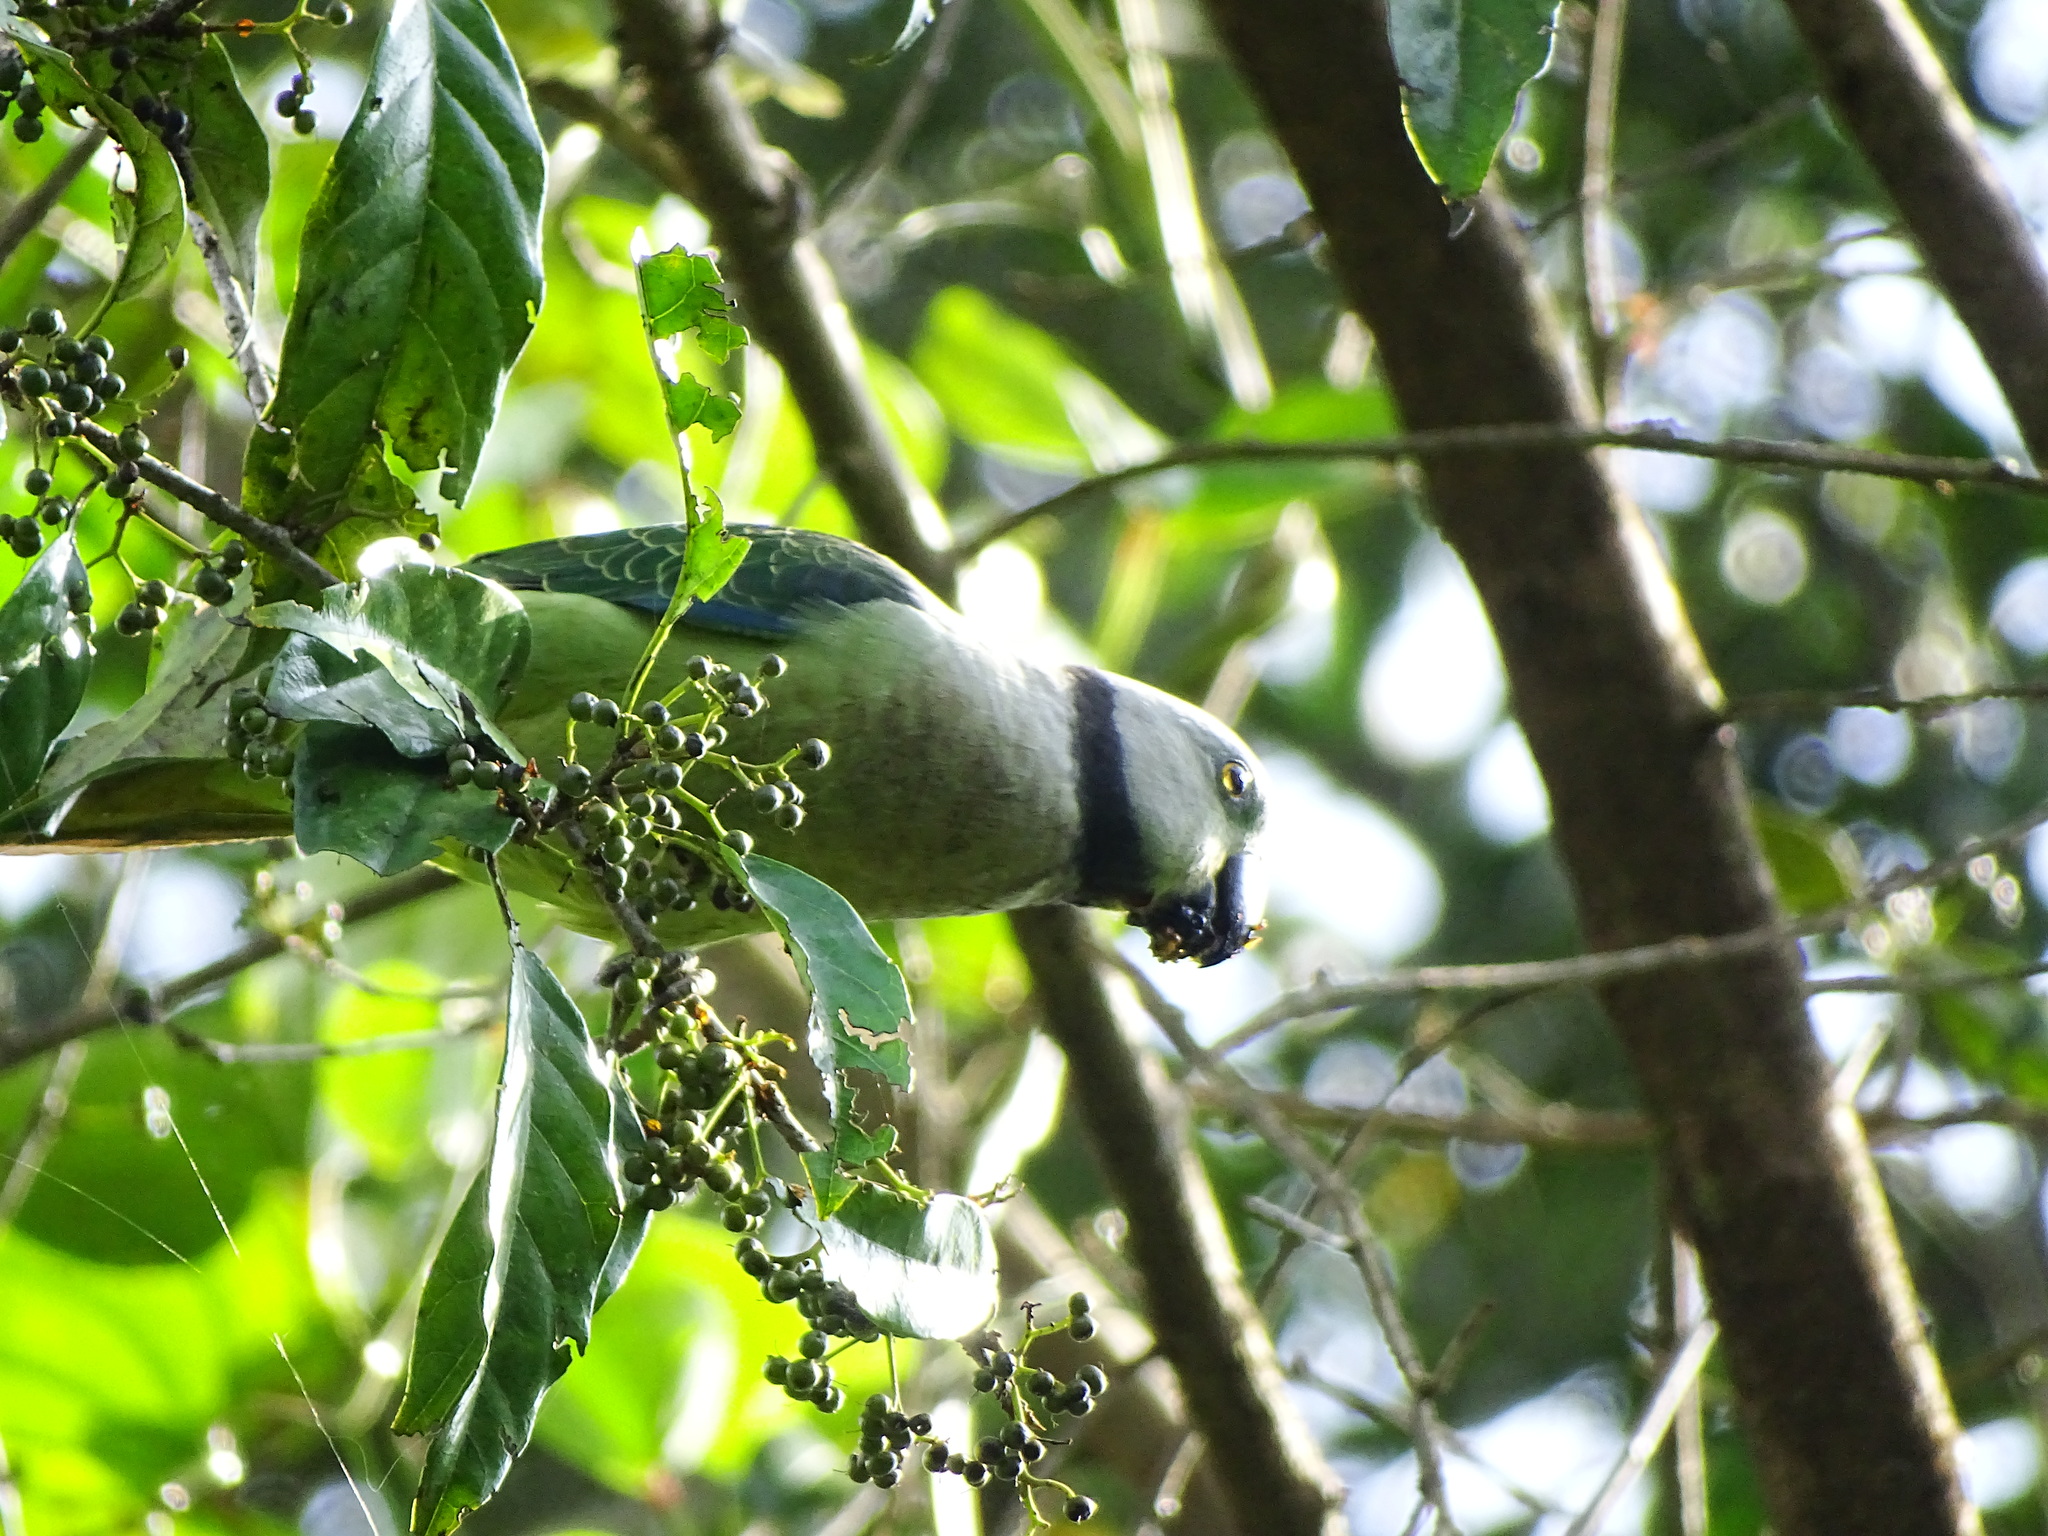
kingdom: Plantae
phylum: Tracheophyta
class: Magnoliopsida
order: Malpighiales
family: Phyllanthaceae
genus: Aporosa
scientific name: Aporosa cardiosperma
